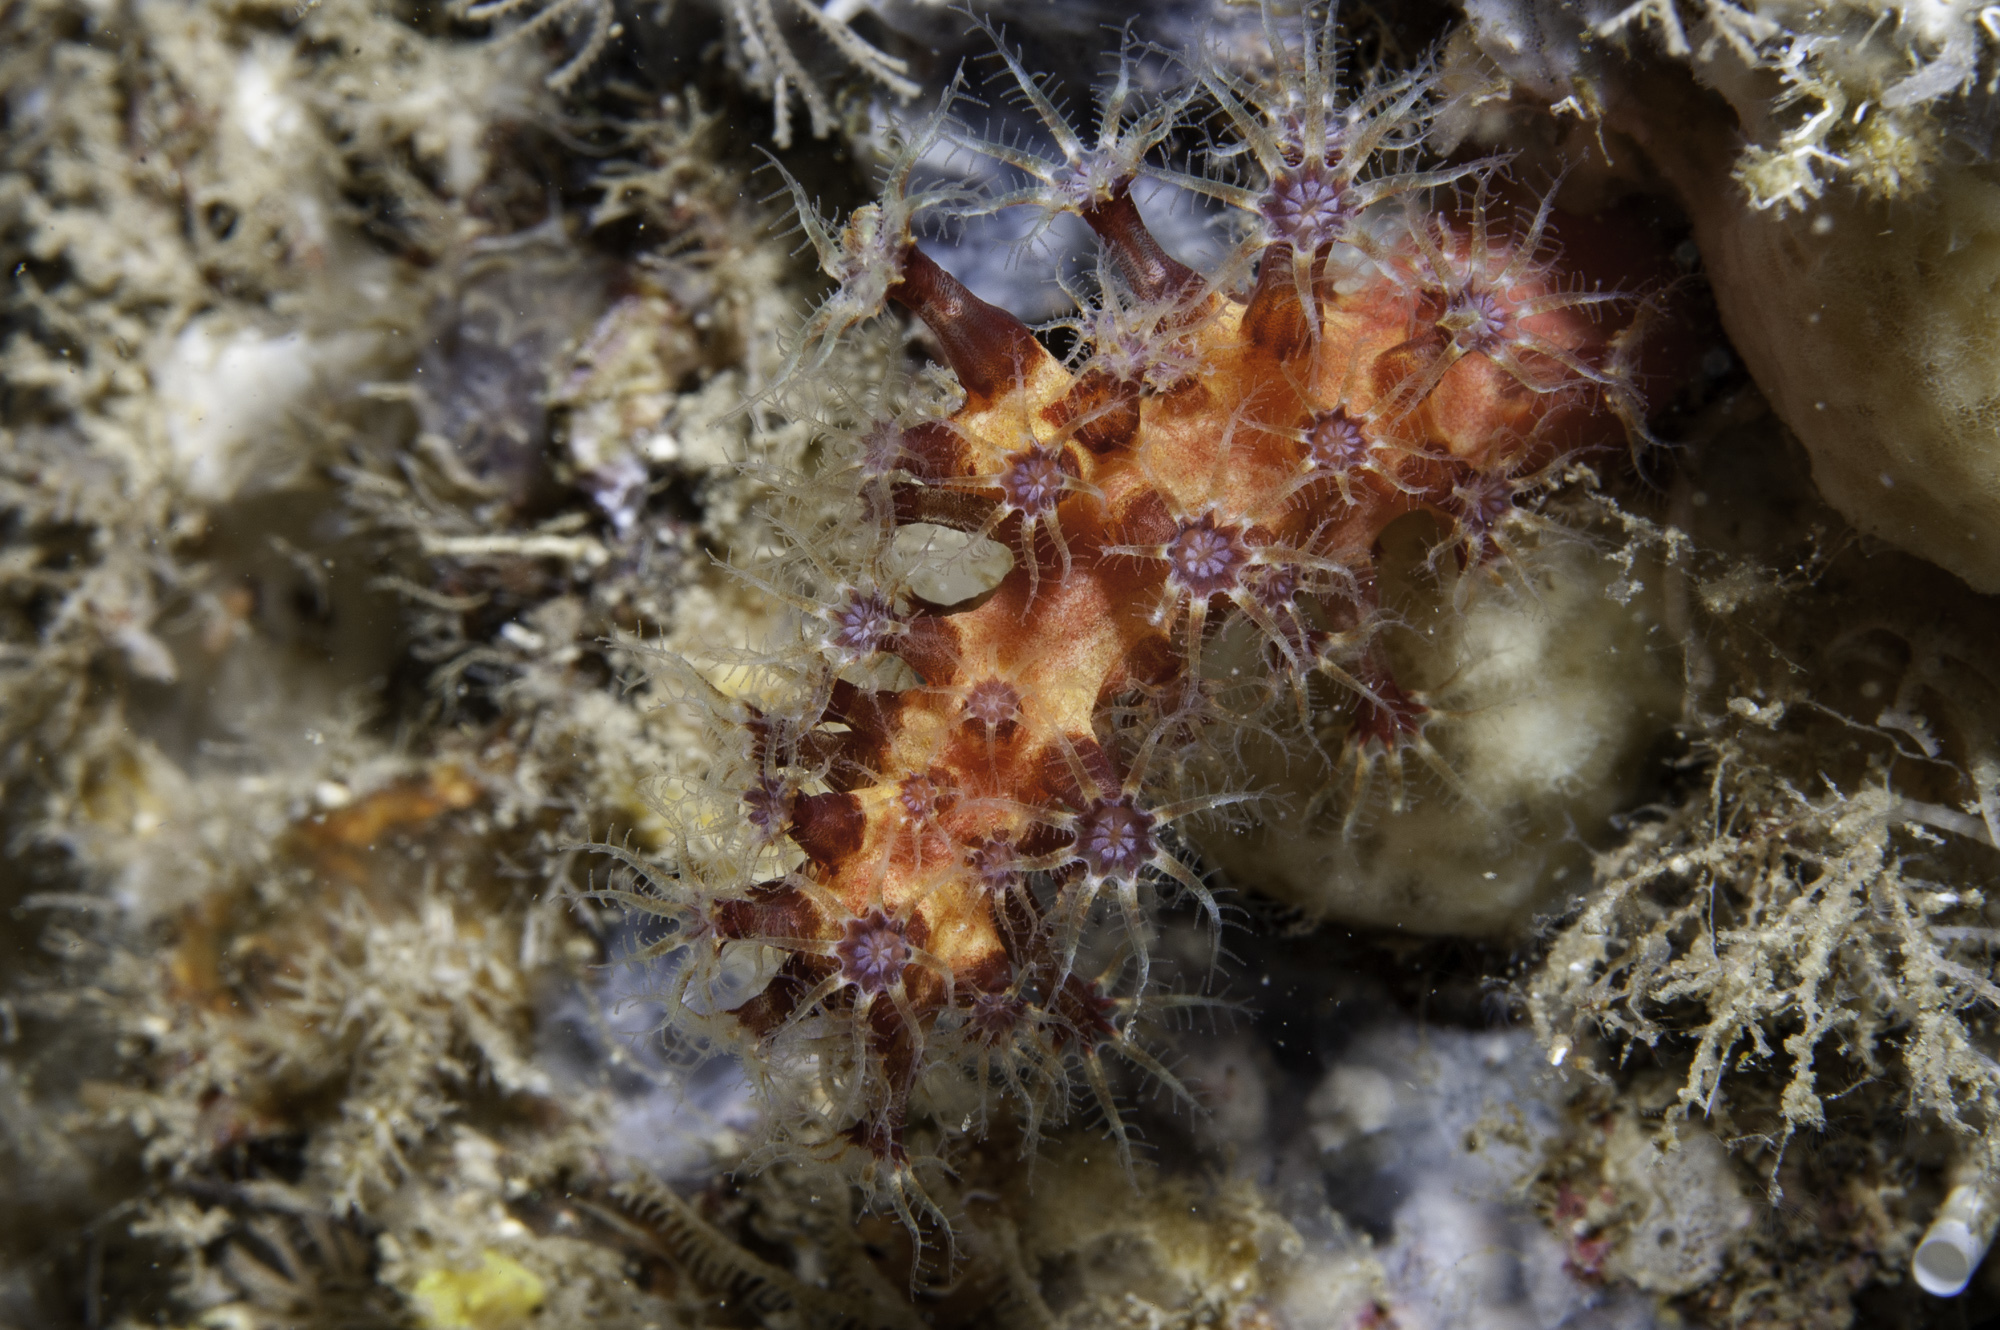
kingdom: Animalia
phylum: Cnidaria
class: Anthozoa
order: Malacalcyonacea
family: Alcyoniidae
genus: Alcyonium
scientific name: Alcyonium coralloides
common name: Soft coral
